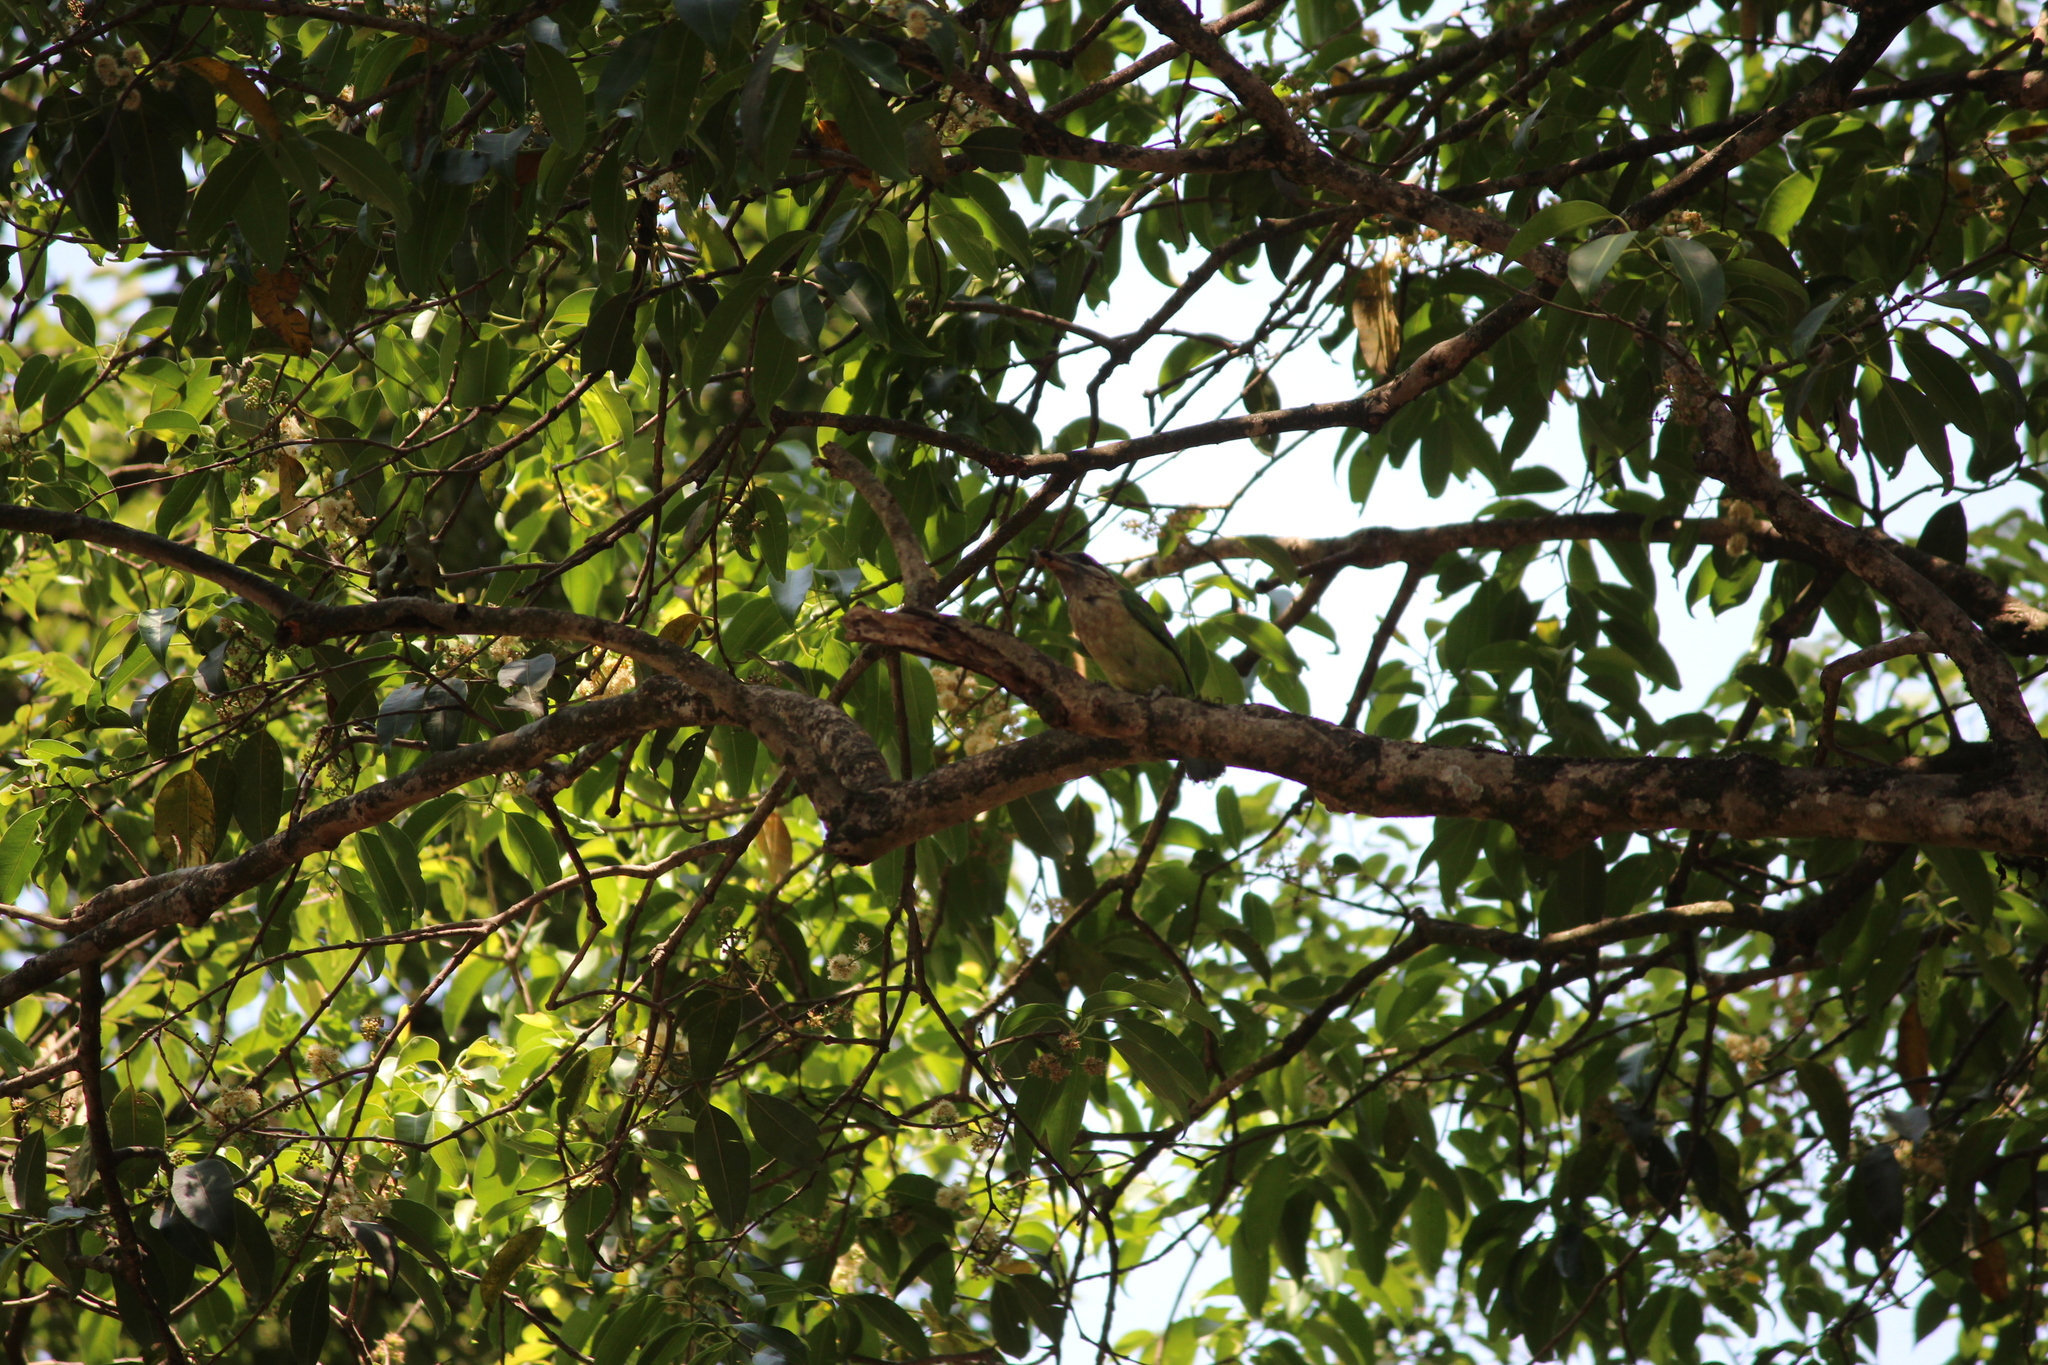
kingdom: Plantae
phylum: Tracheophyta
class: Magnoliopsida
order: Myrtales
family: Myrtaceae
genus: Syzygium
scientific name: Syzygium cumini
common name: Java plum
